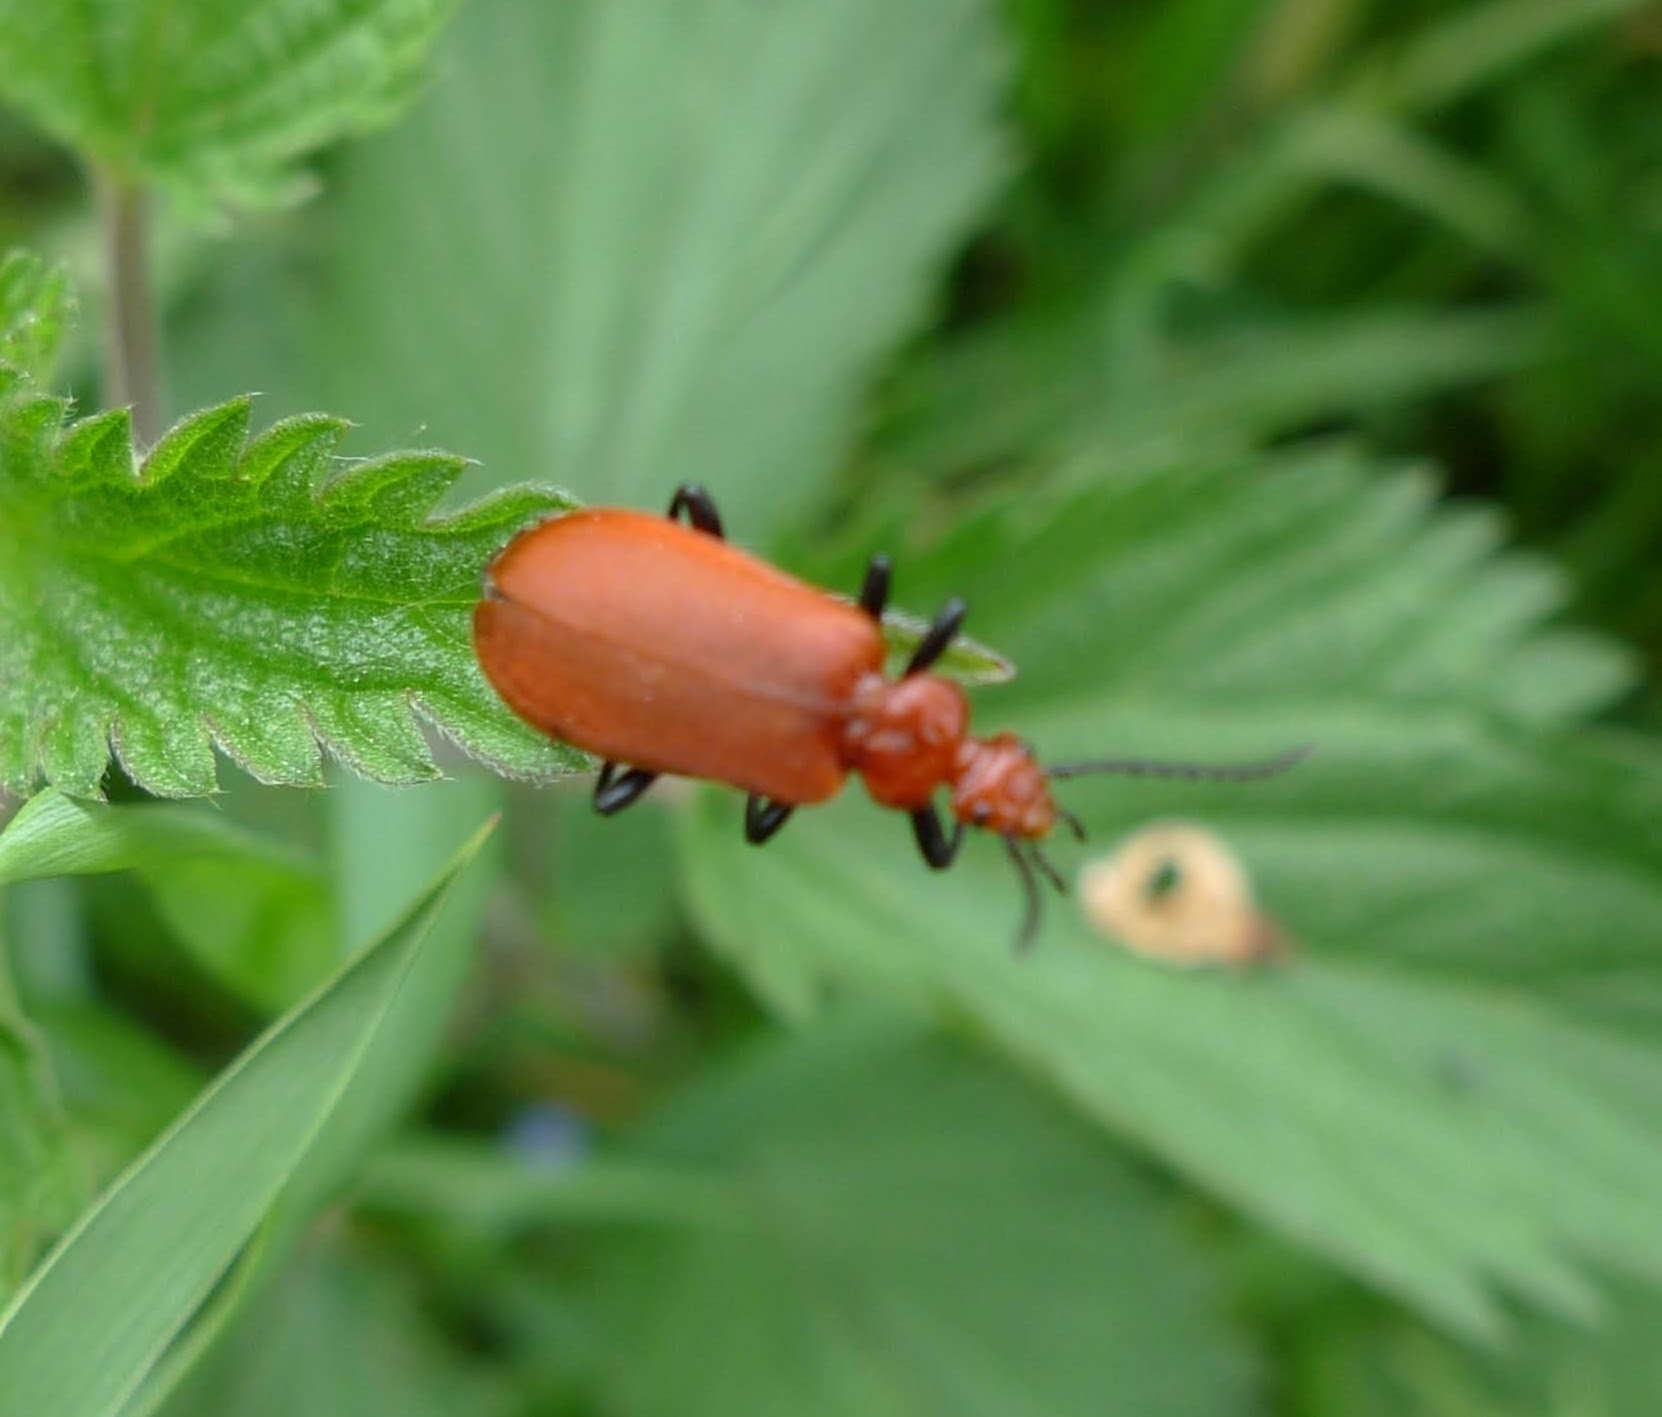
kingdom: Animalia
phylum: Arthropoda
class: Insecta
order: Coleoptera
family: Pyrochroidae
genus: Pyrochroa
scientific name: Pyrochroa serraticornis
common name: Red-headed cardinal beetle
